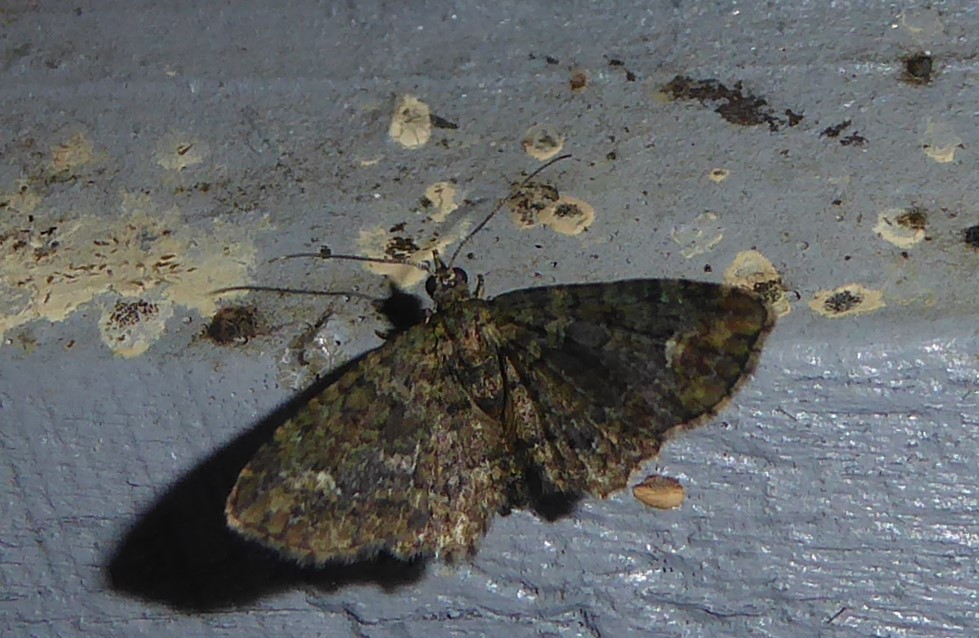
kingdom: Animalia
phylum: Arthropoda
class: Insecta
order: Lepidoptera
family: Geometridae
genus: Pasiphilodes
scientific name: Pasiphilodes testulata
